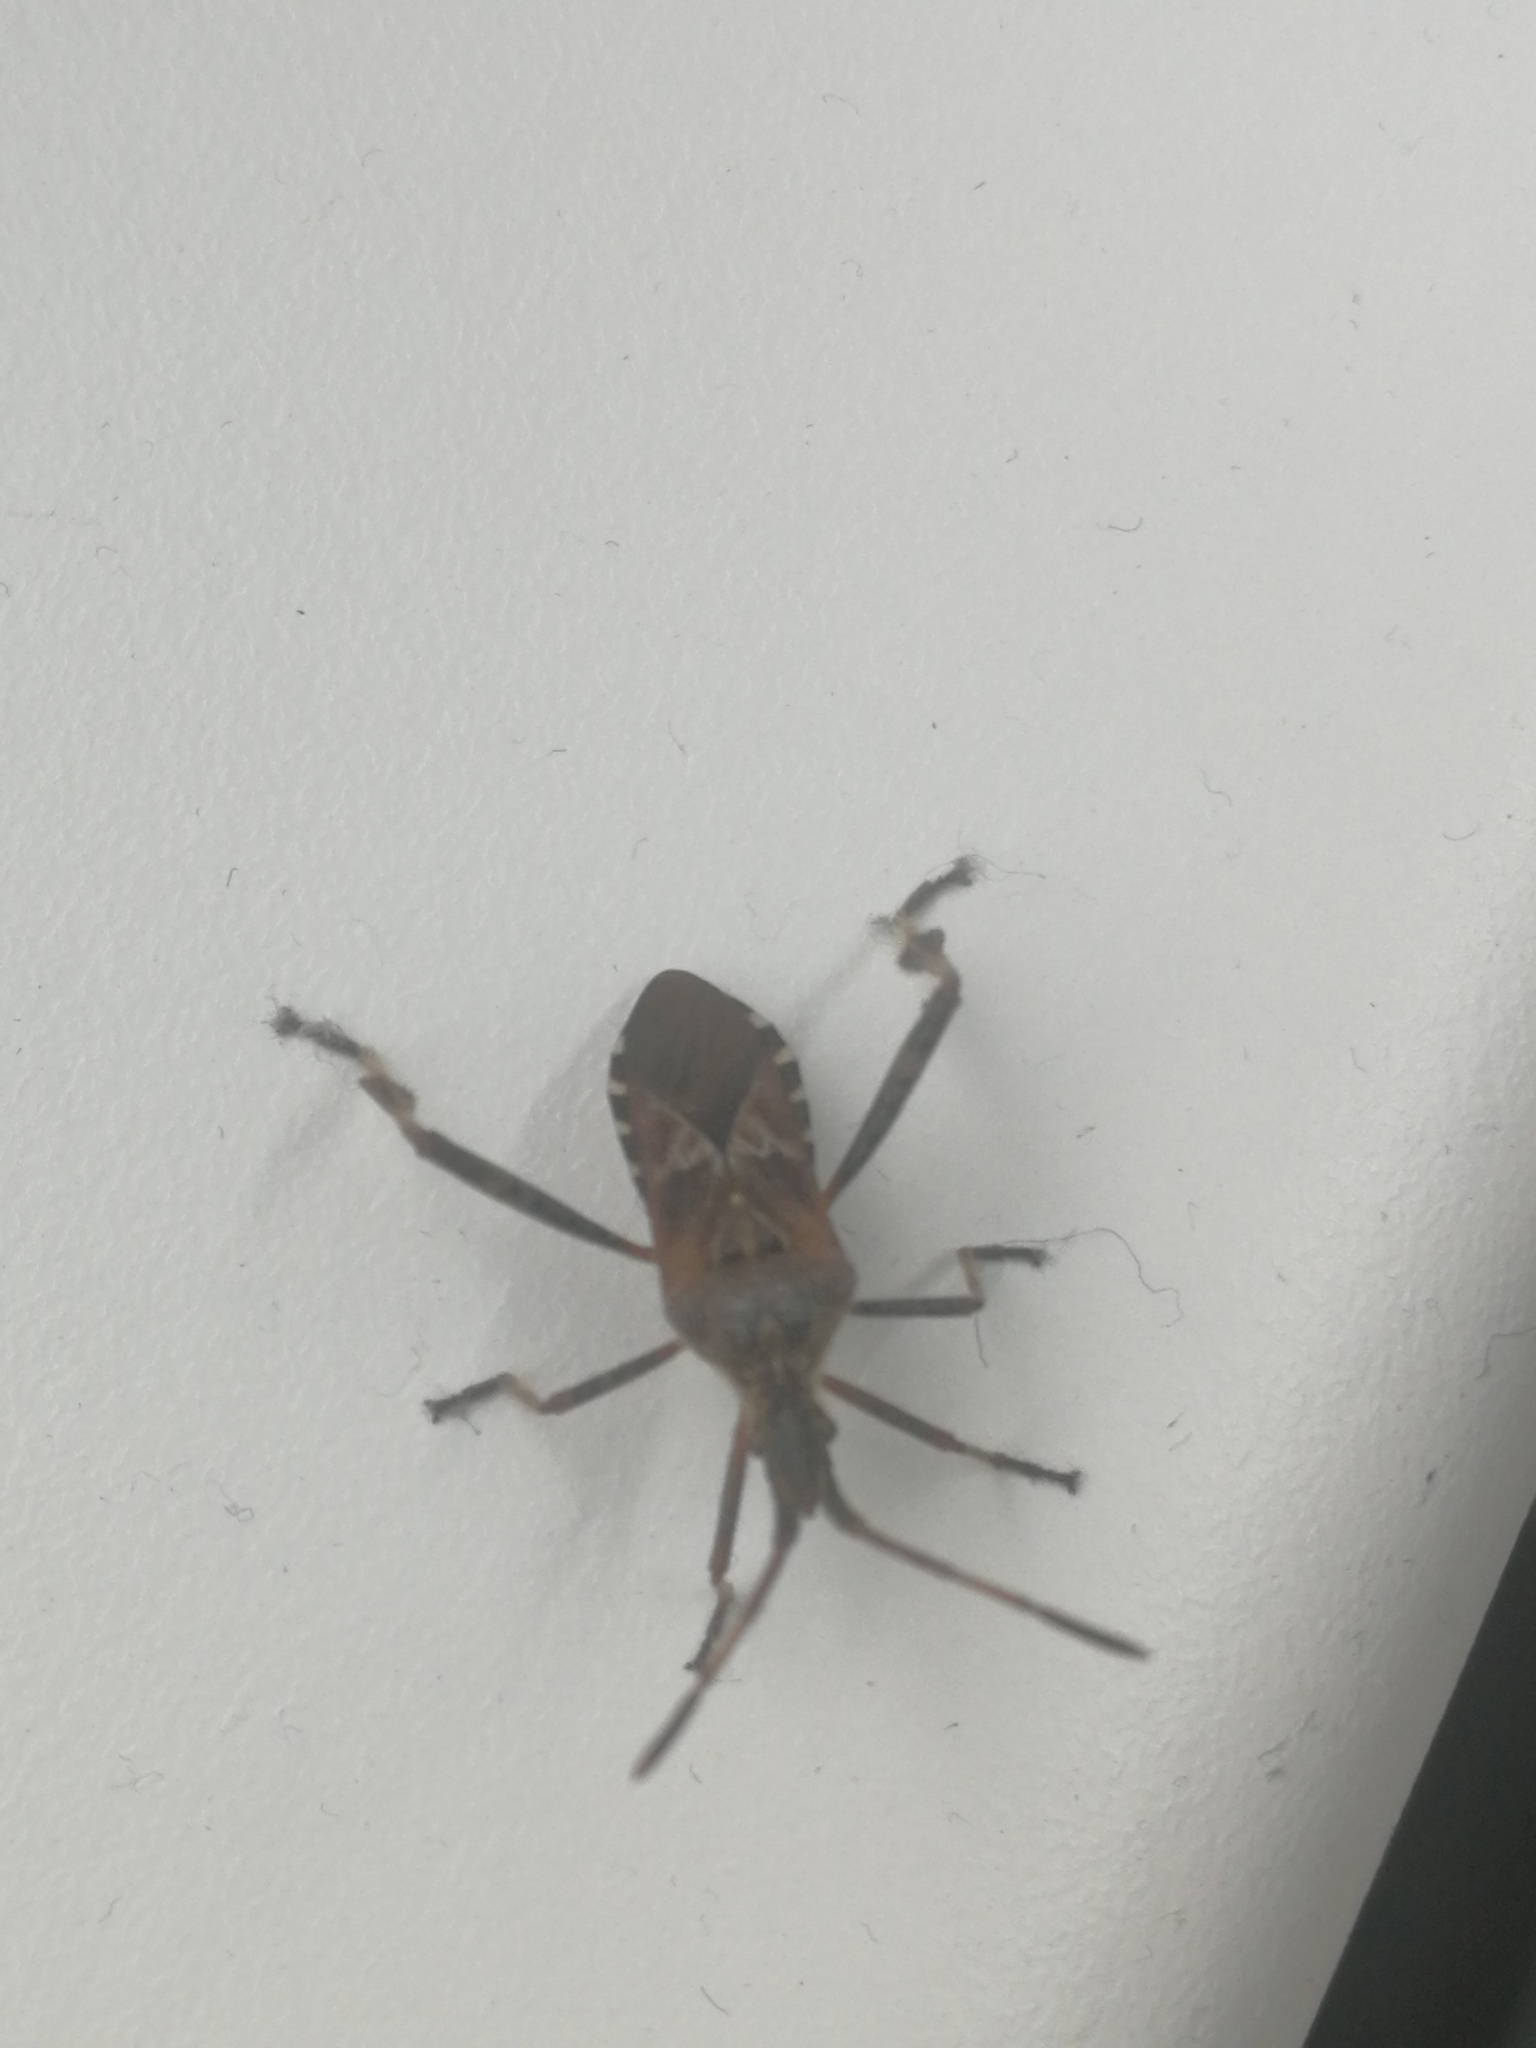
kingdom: Animalia
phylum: Arthropoda
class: Insecta
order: Hemiptera
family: Coreidae
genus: Leptoglossus
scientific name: Leptoglossus occidentalis
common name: Western conifer-seed bug
